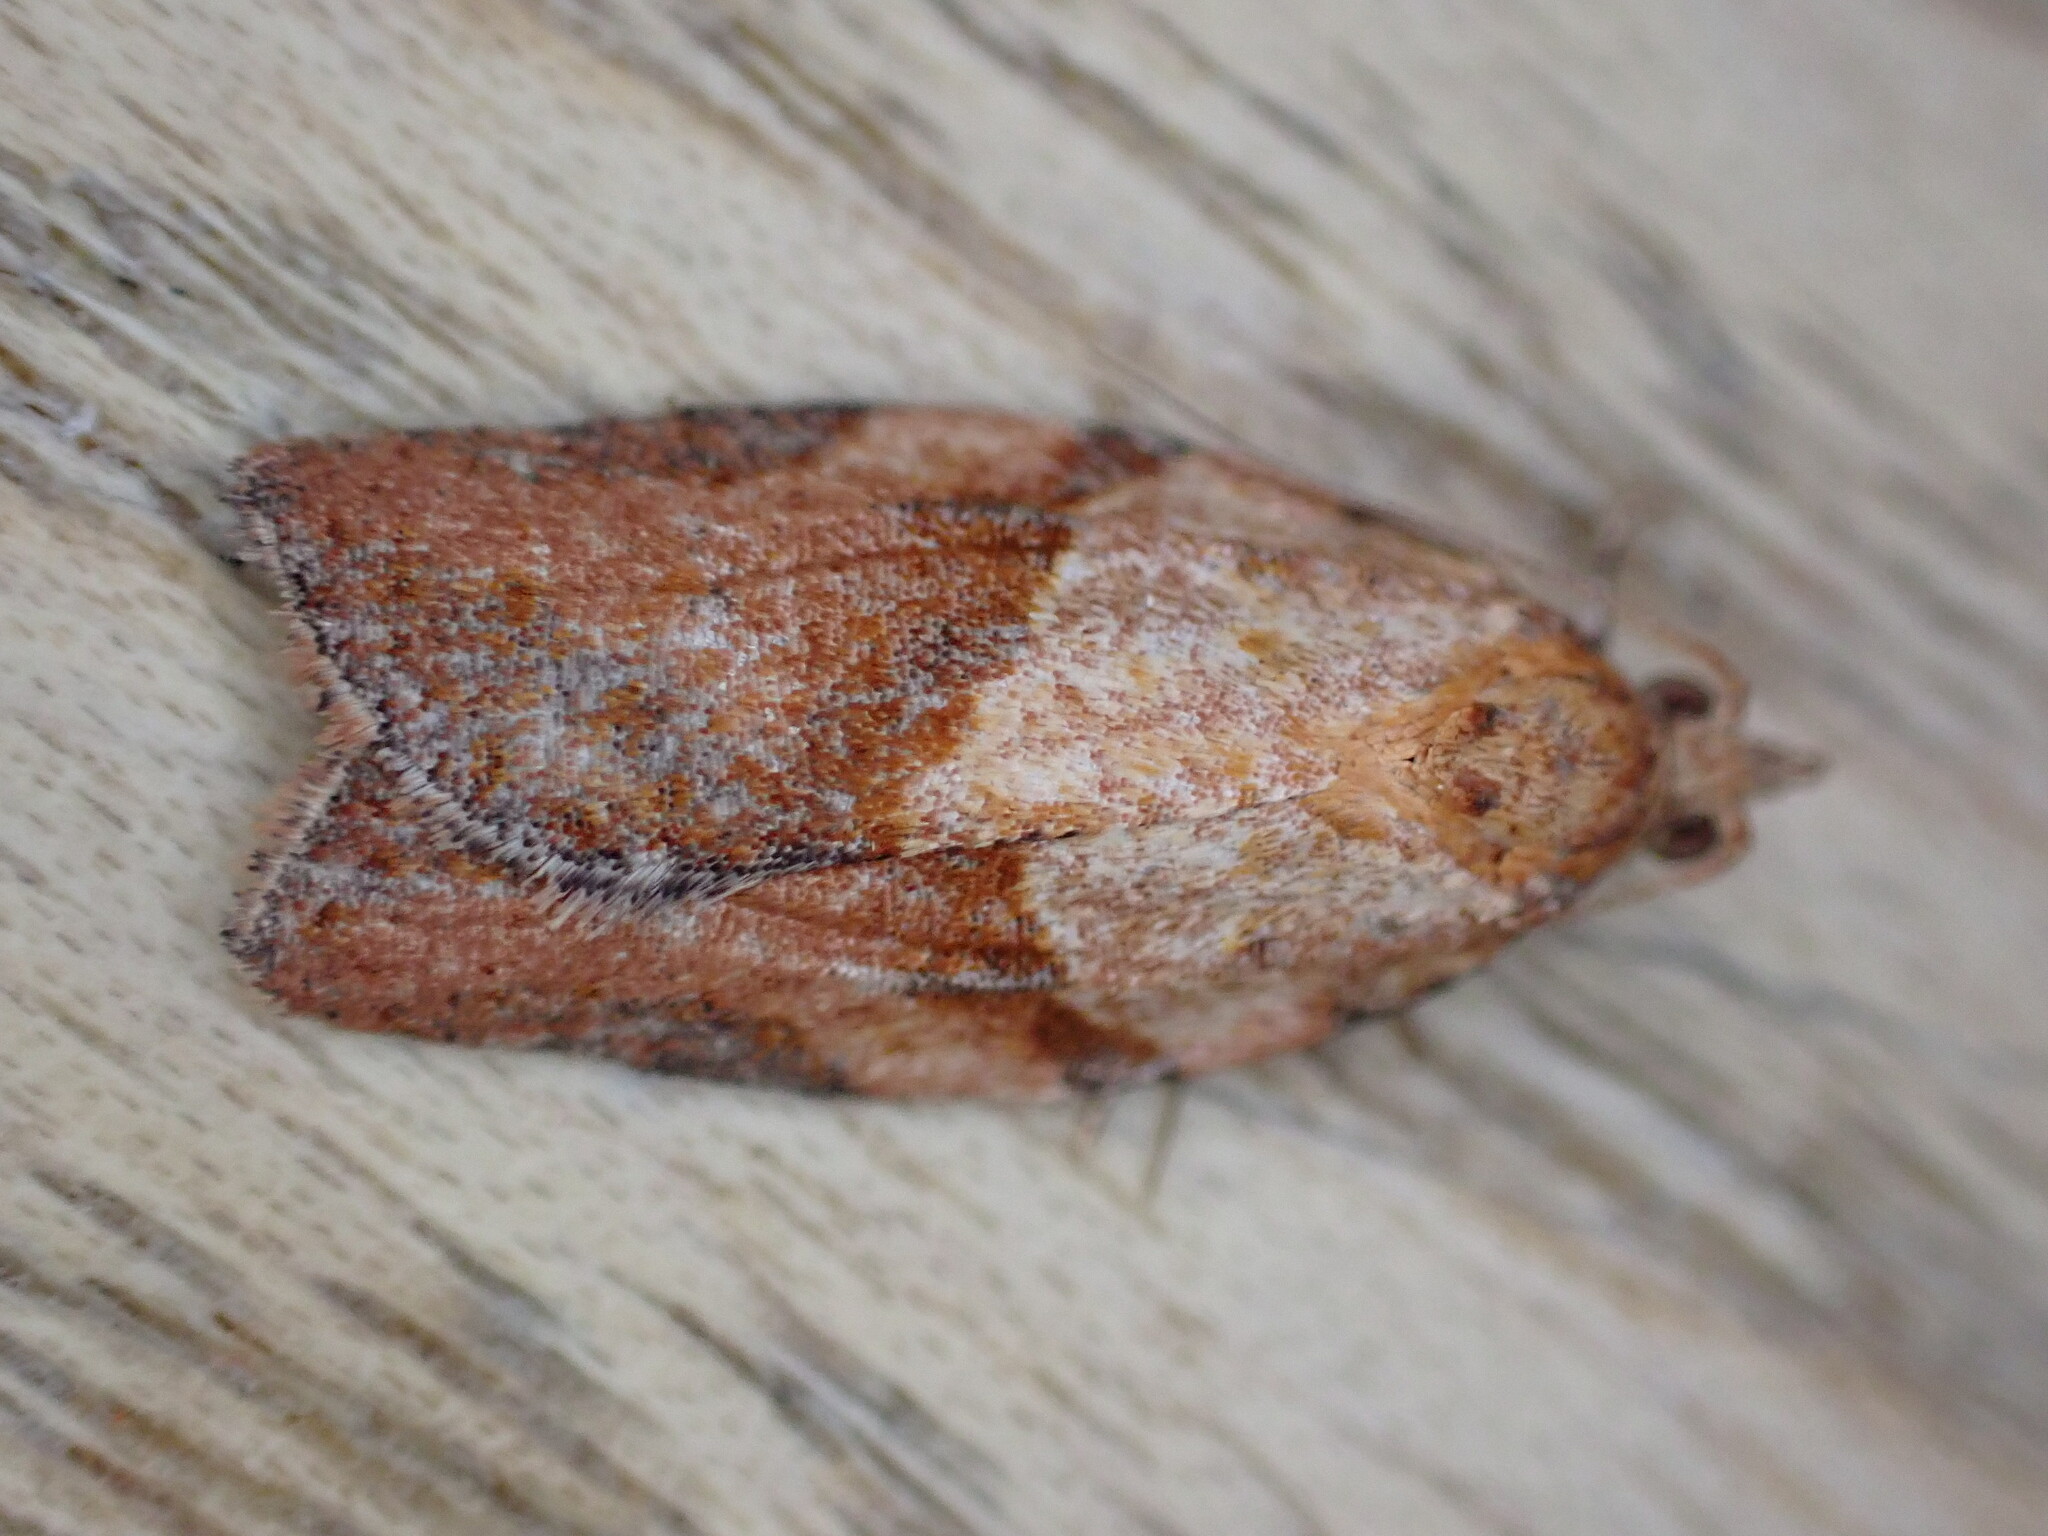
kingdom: Animalia
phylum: Arthropoda
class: Insecta
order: Lepidoptera
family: Tortricidae
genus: Epiphyas
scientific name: Epiphyas postvittana
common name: Light brown apple moth
